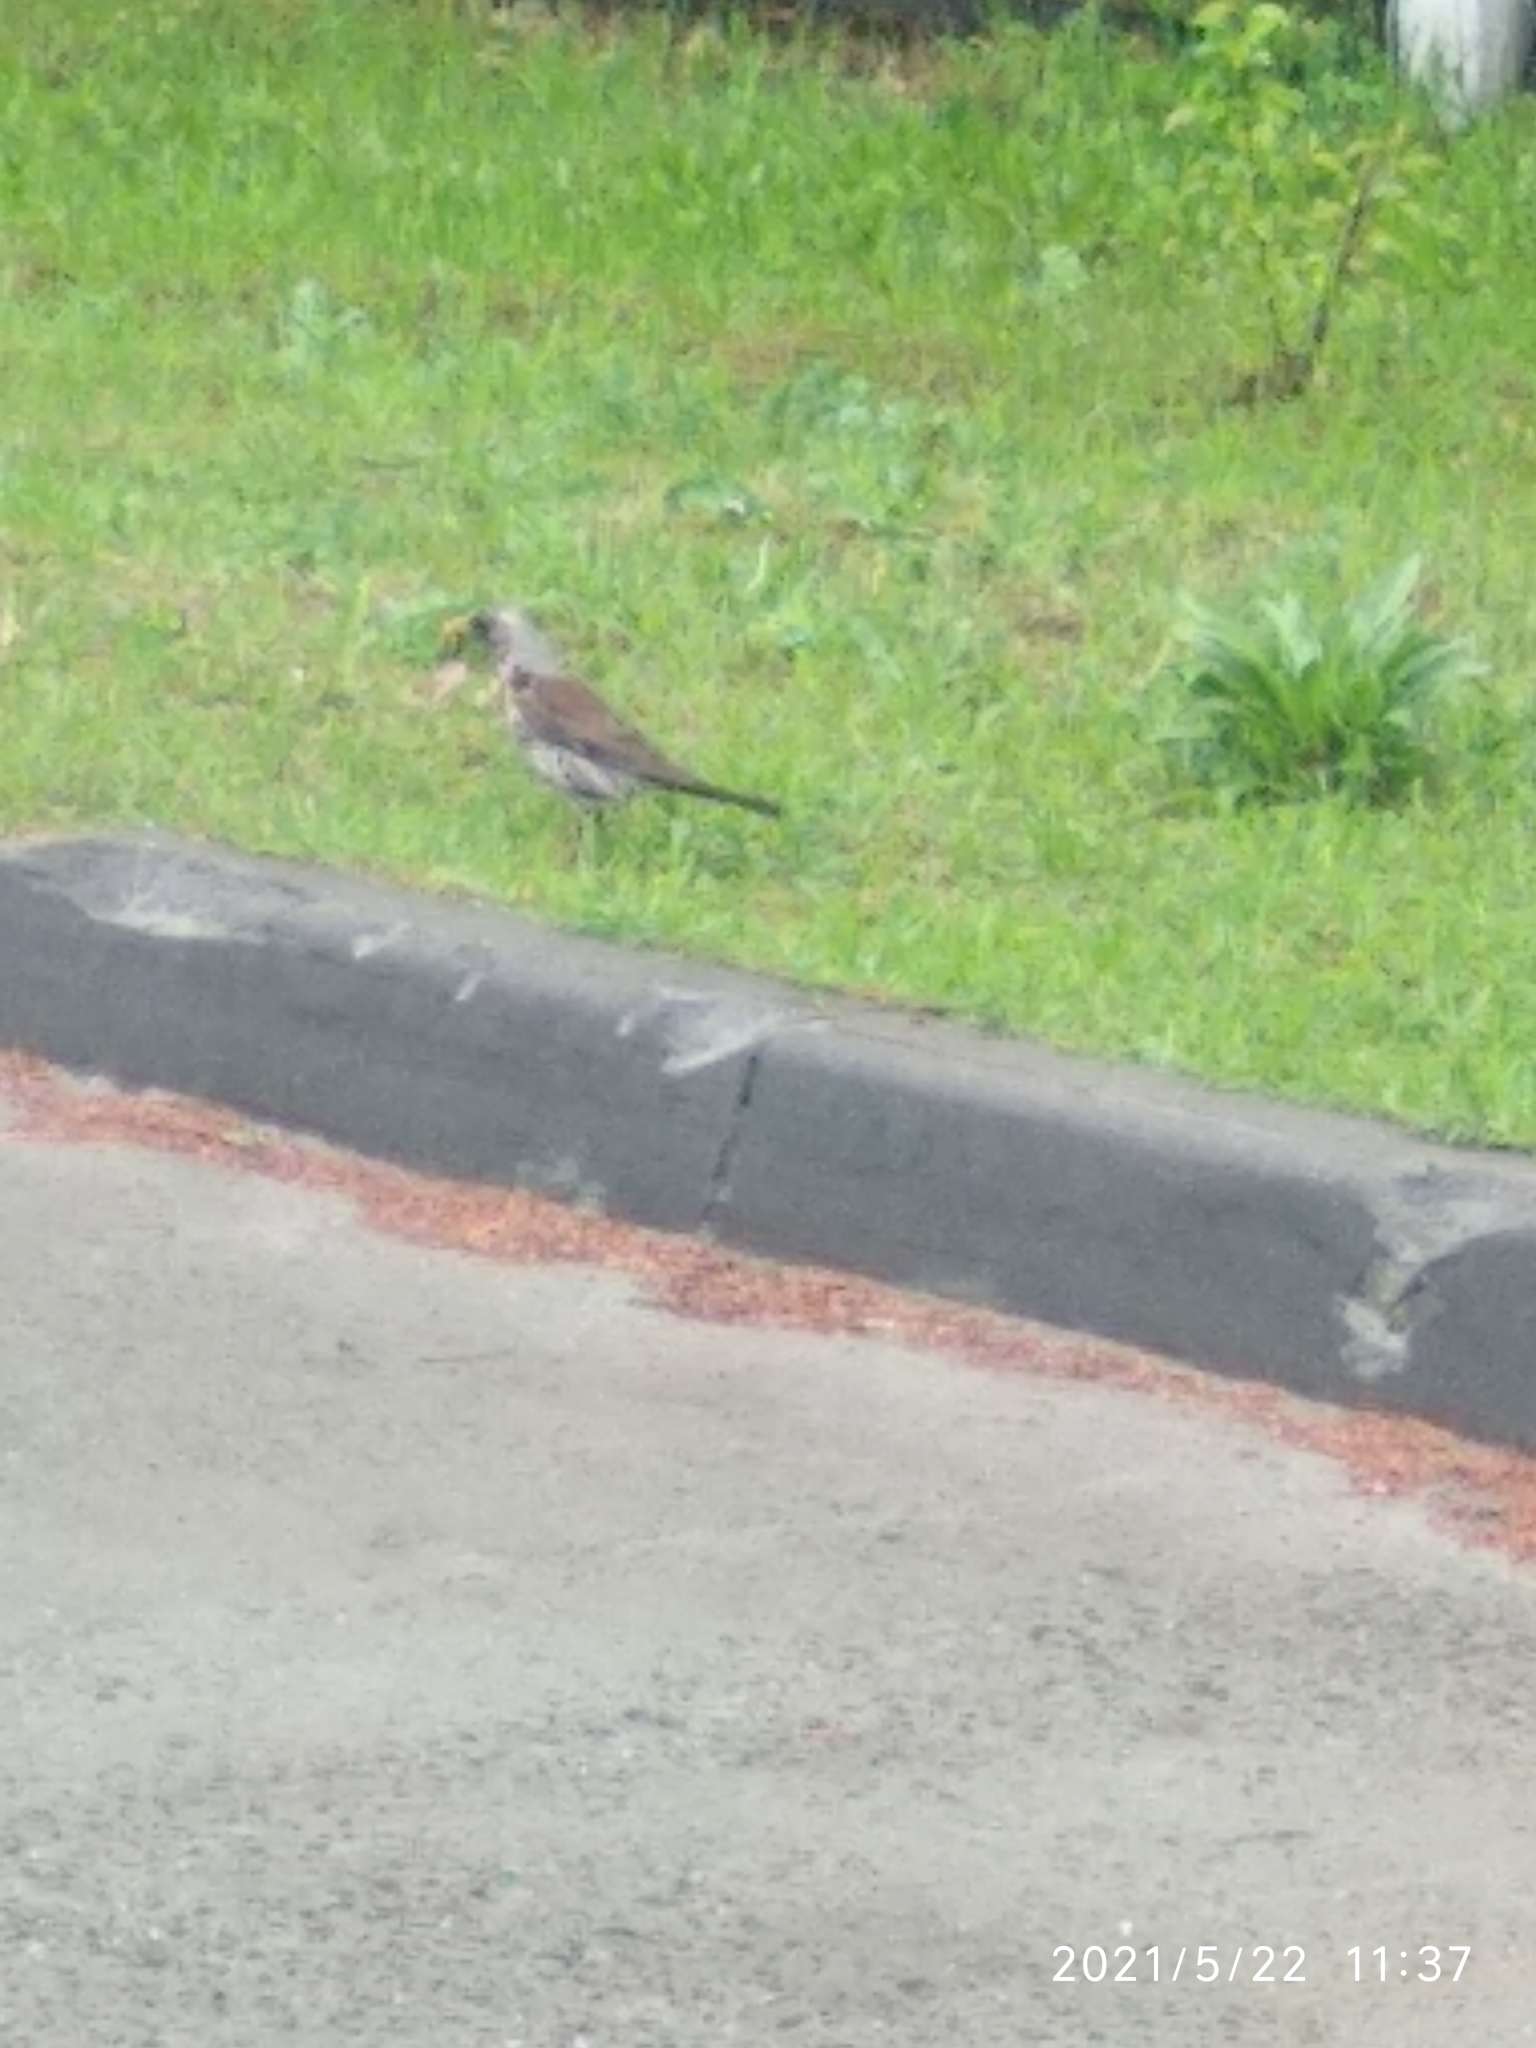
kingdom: Animalia
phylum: Chordata
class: Aves
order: Passeriformes
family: Turdidae
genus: Turdus
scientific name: Turdus pilaris
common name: Fieldfare
